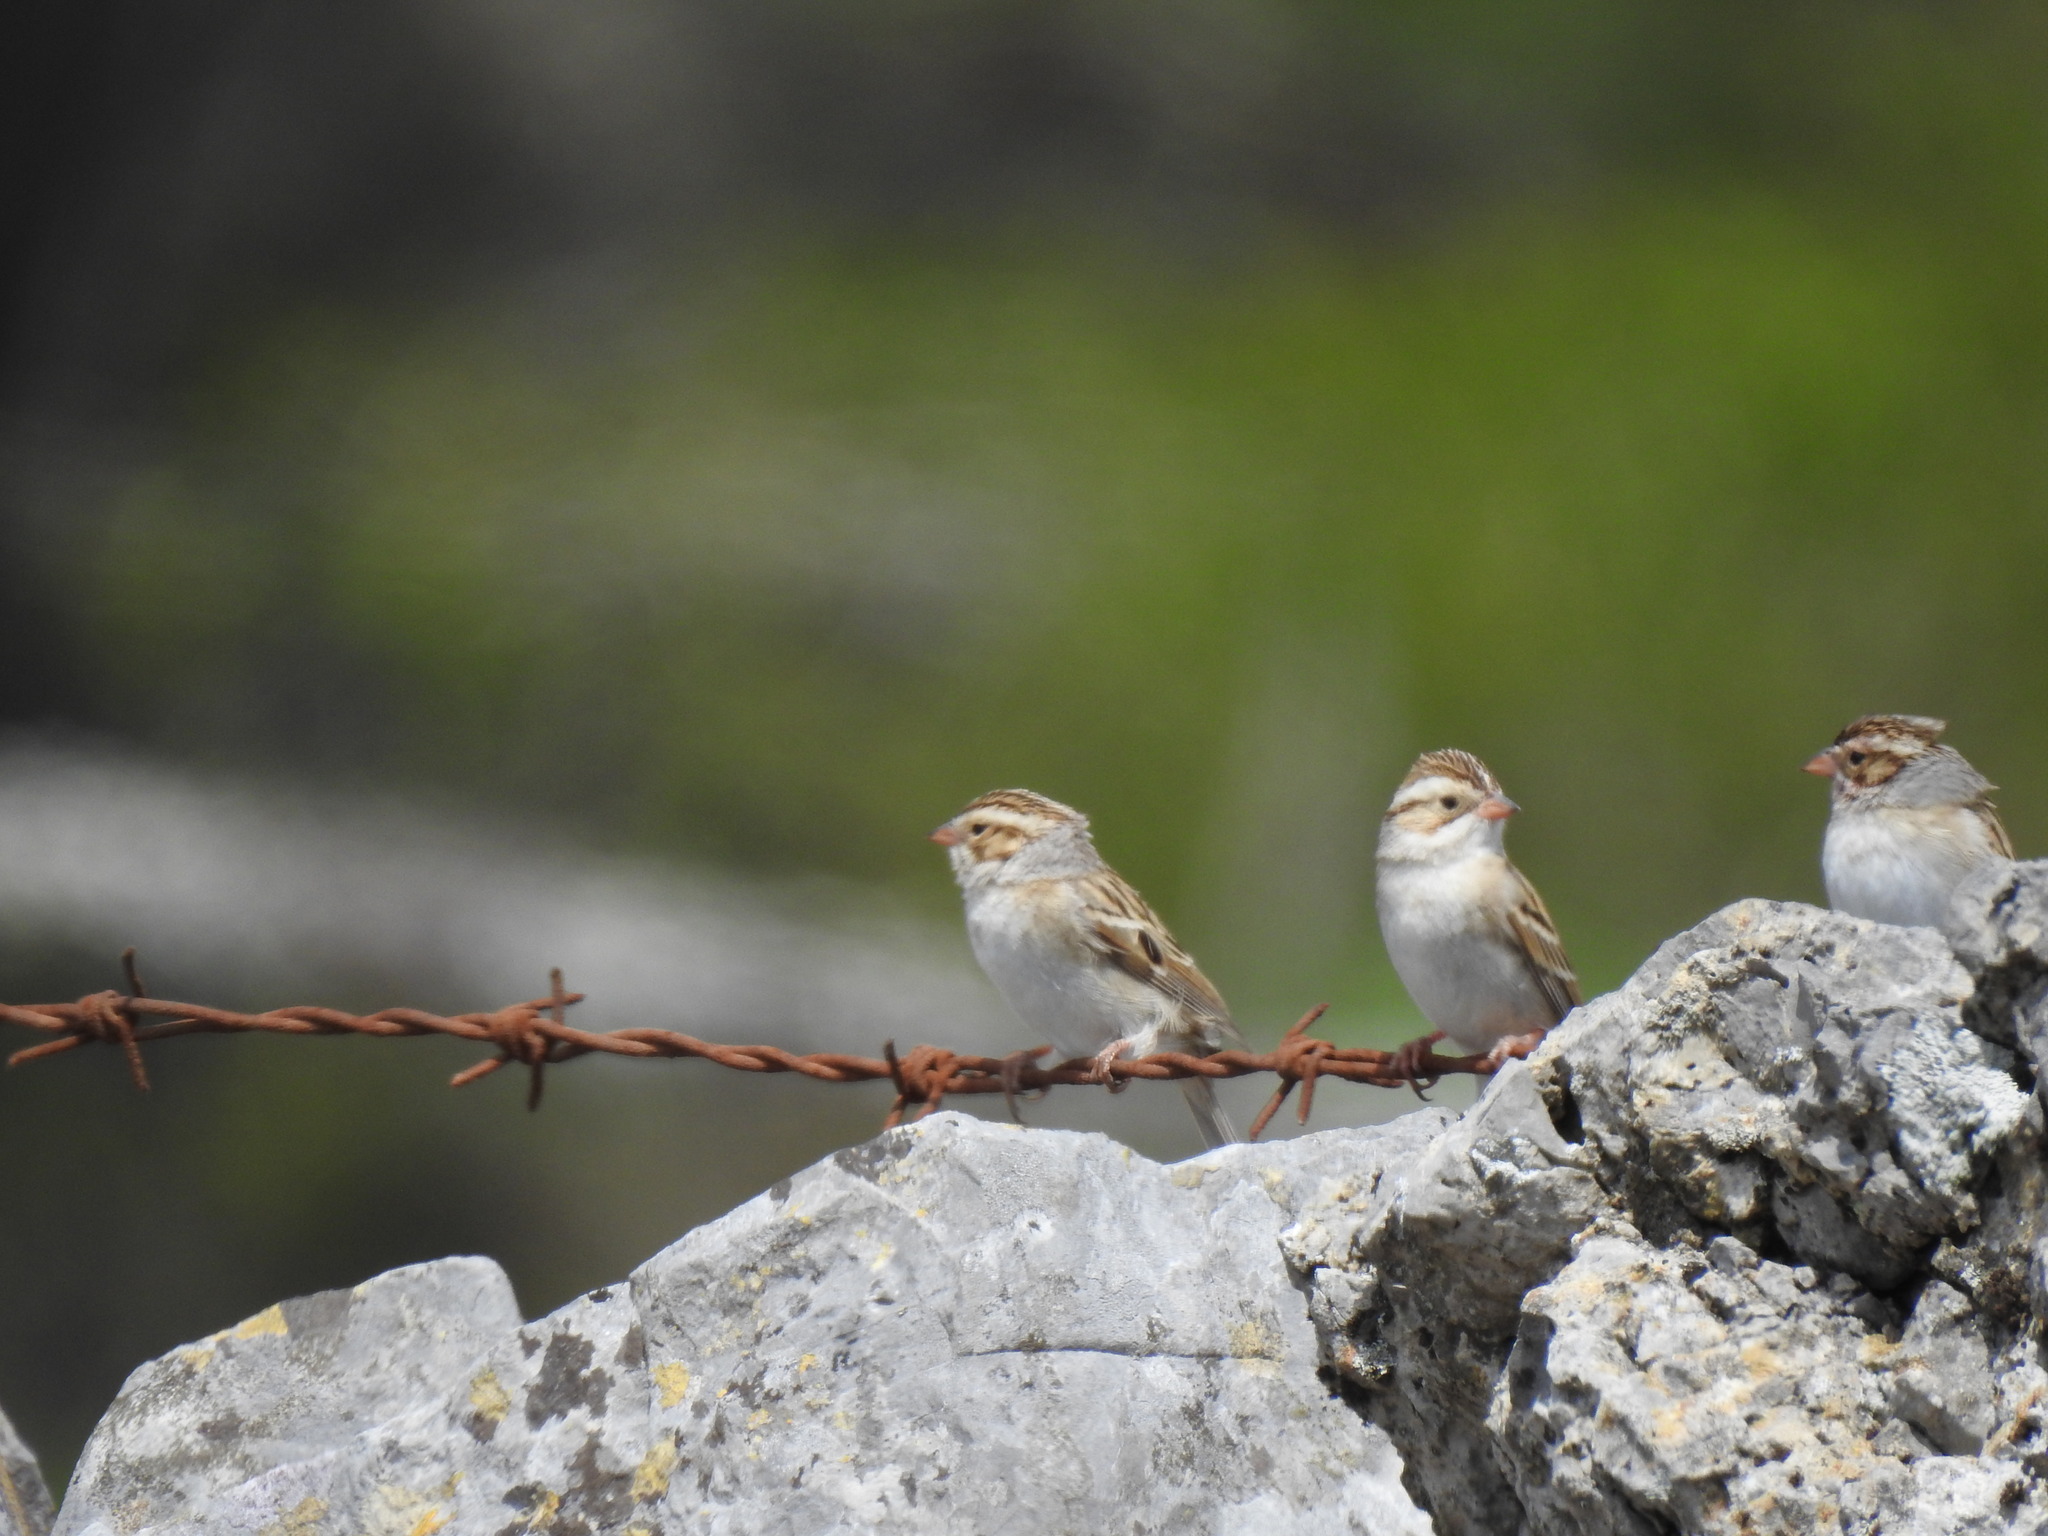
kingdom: Animalia
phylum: Chordata
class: Aves
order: Passeriformes
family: Passerellidae
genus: Spizella
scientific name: Spizella pallida
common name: Clay-colored sparrow
